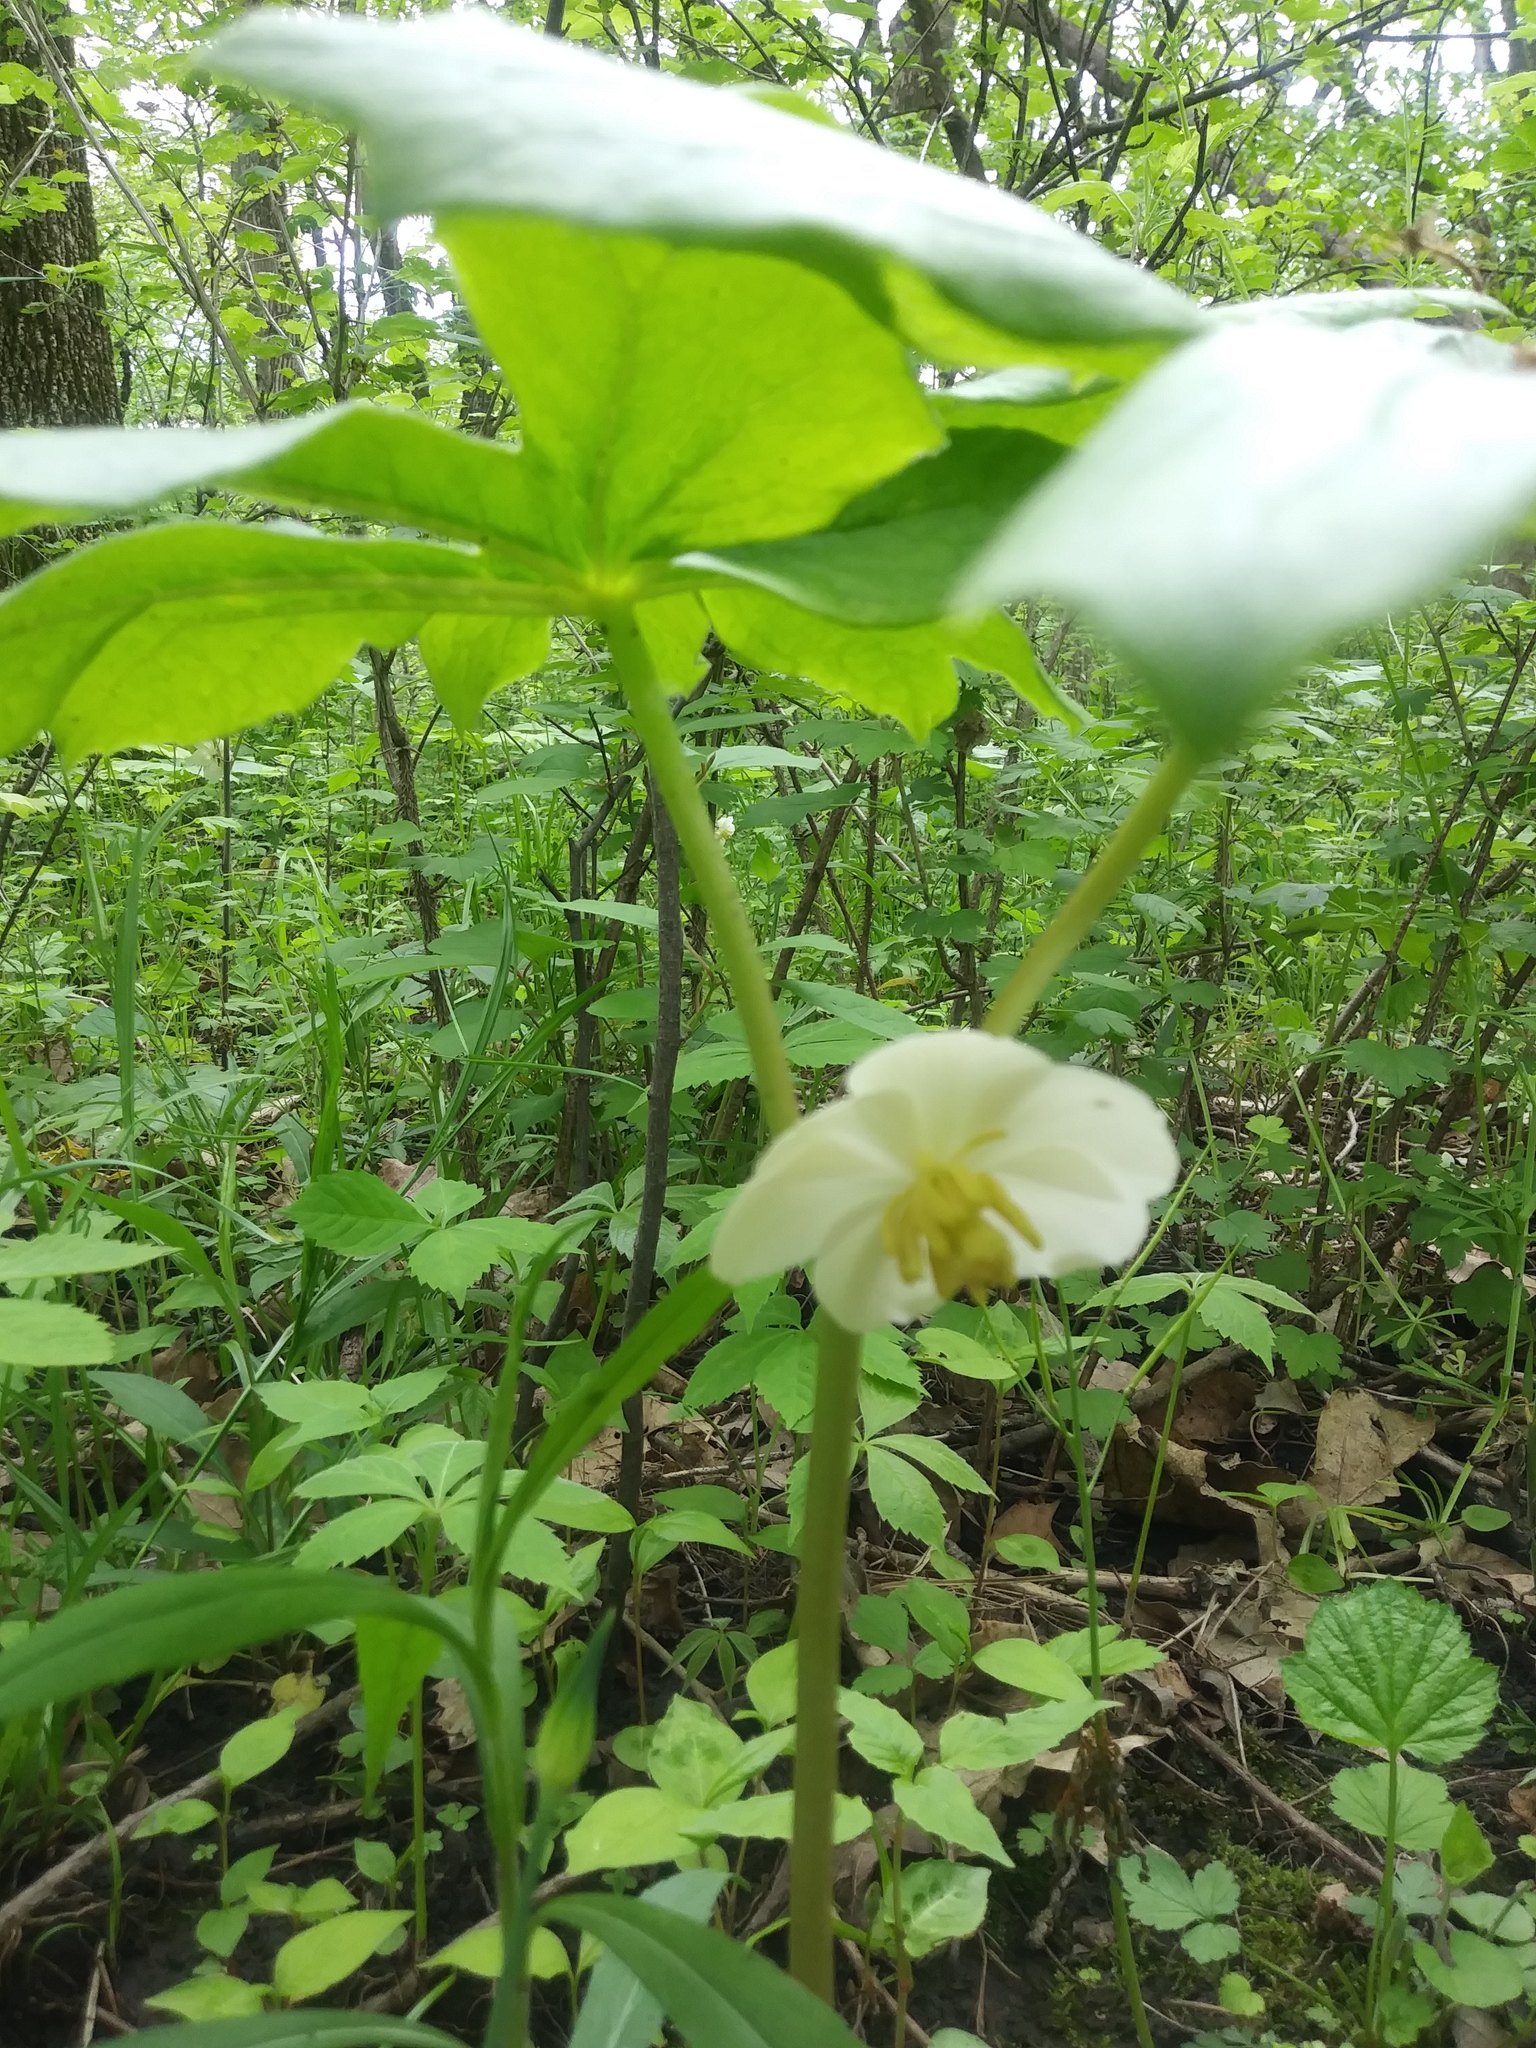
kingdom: Plantae
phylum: Tracheophyta
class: Magnoliopsida
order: Ranunculales
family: Berberidaceae
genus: Podophyllum
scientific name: Podophyllum peltatum
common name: Wild mandrake
